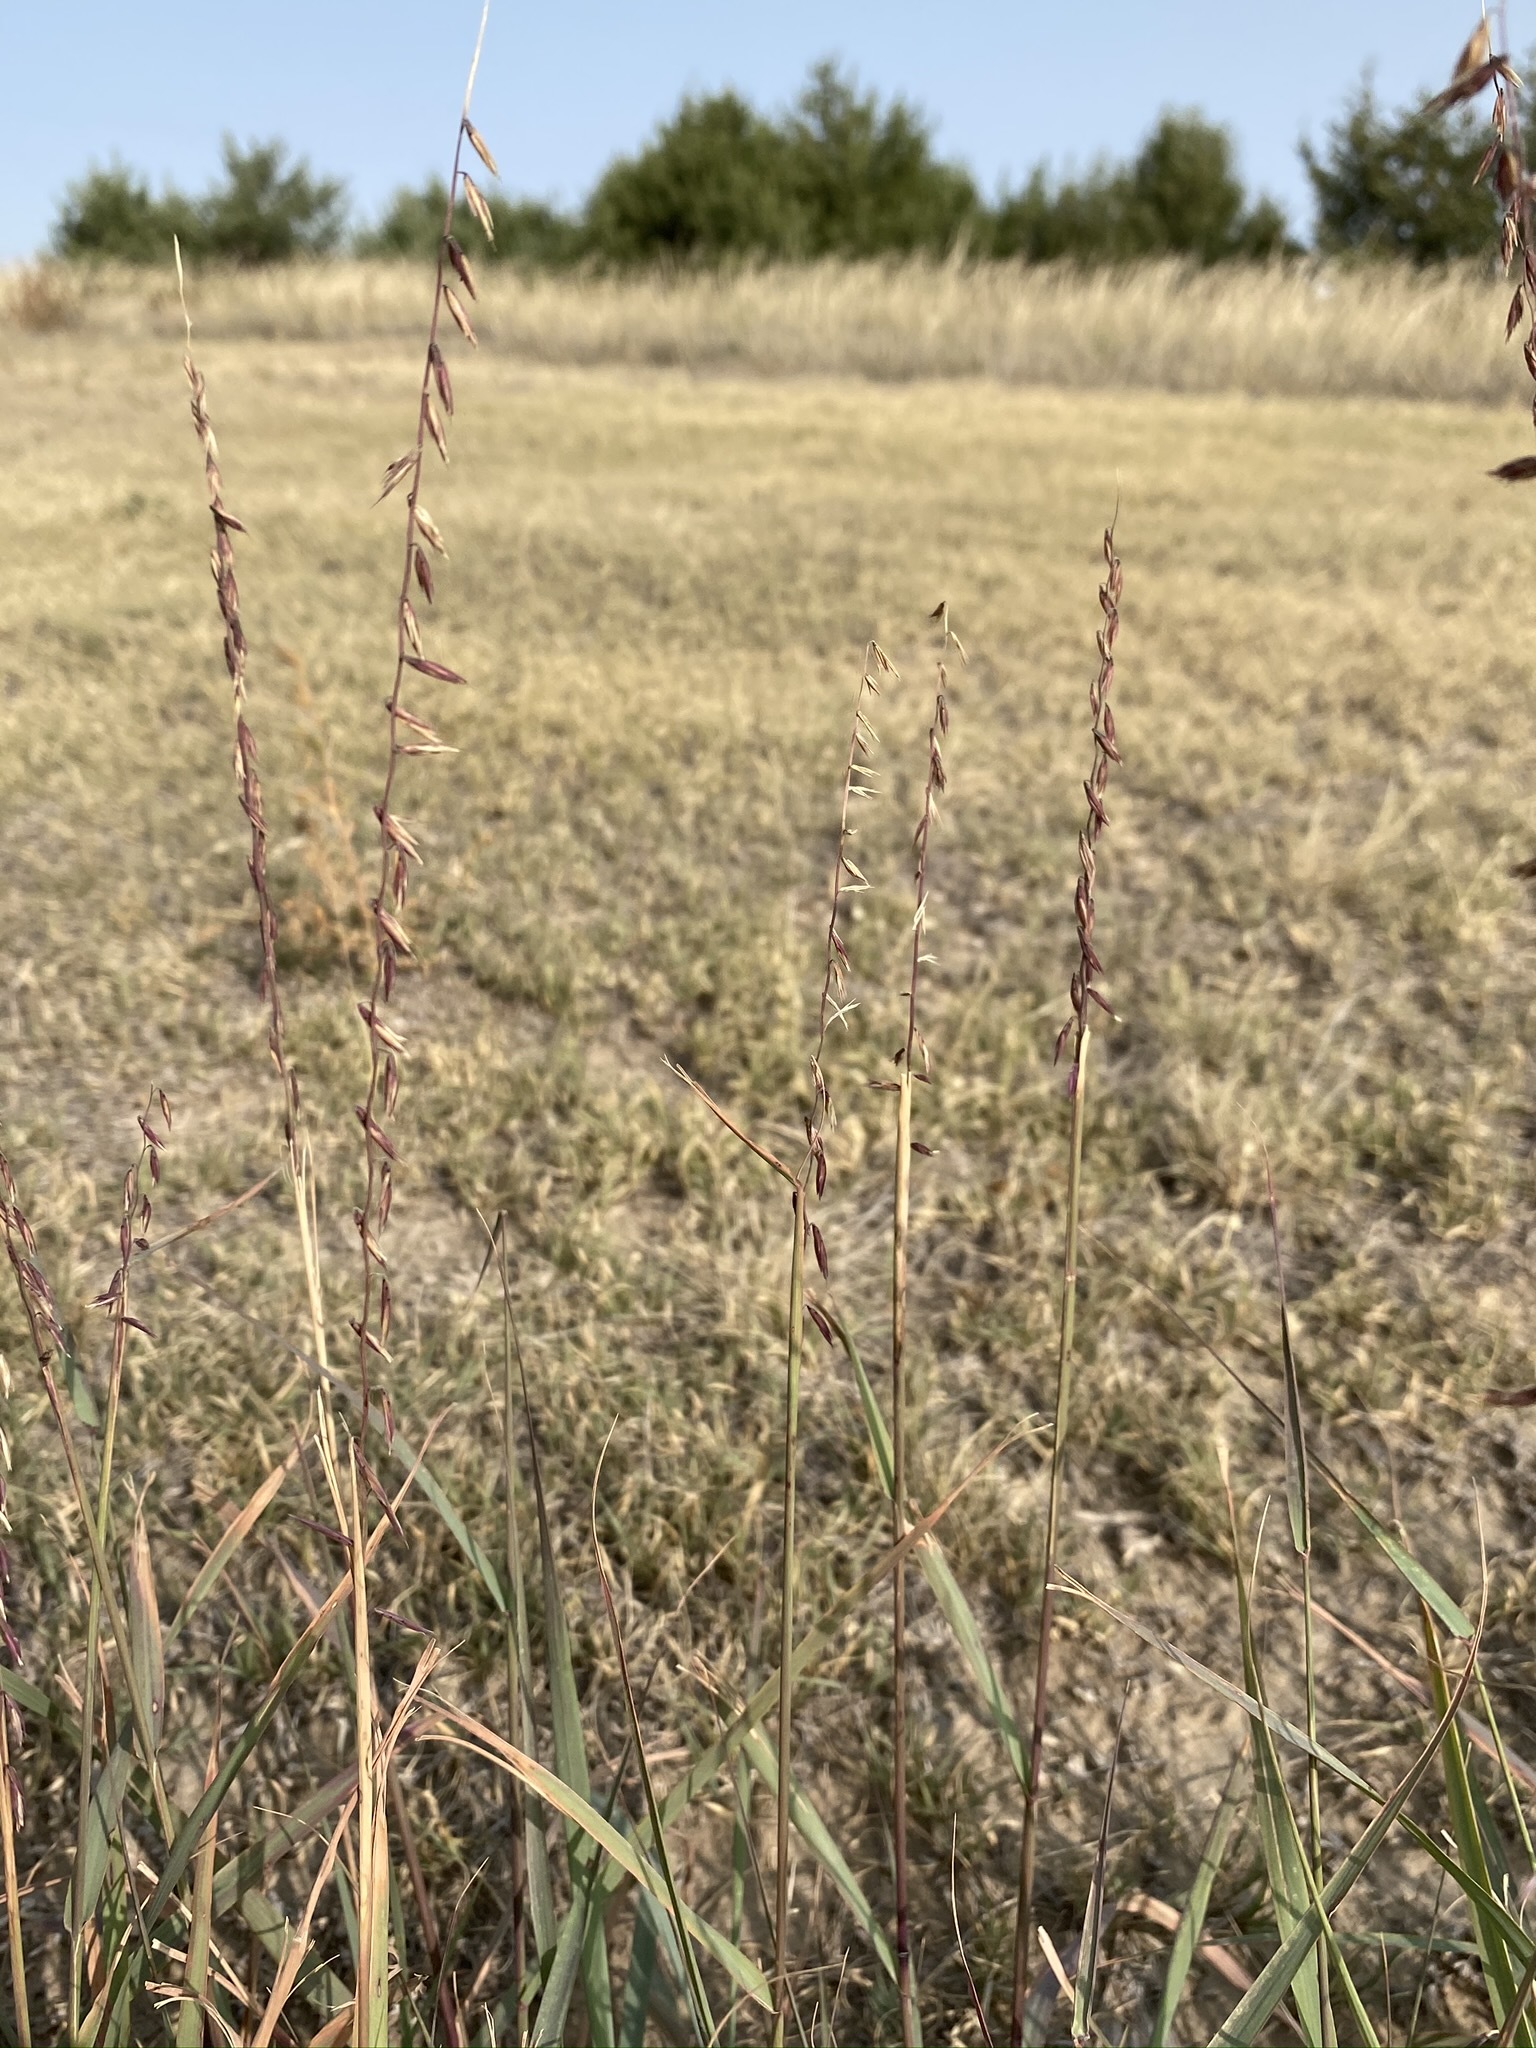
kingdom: Plantae
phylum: Tracheophyta
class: Liliopsida
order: Poales
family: Poaceae
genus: Bouteloua
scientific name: Bouteloua curtipendula
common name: Side-oats grama
